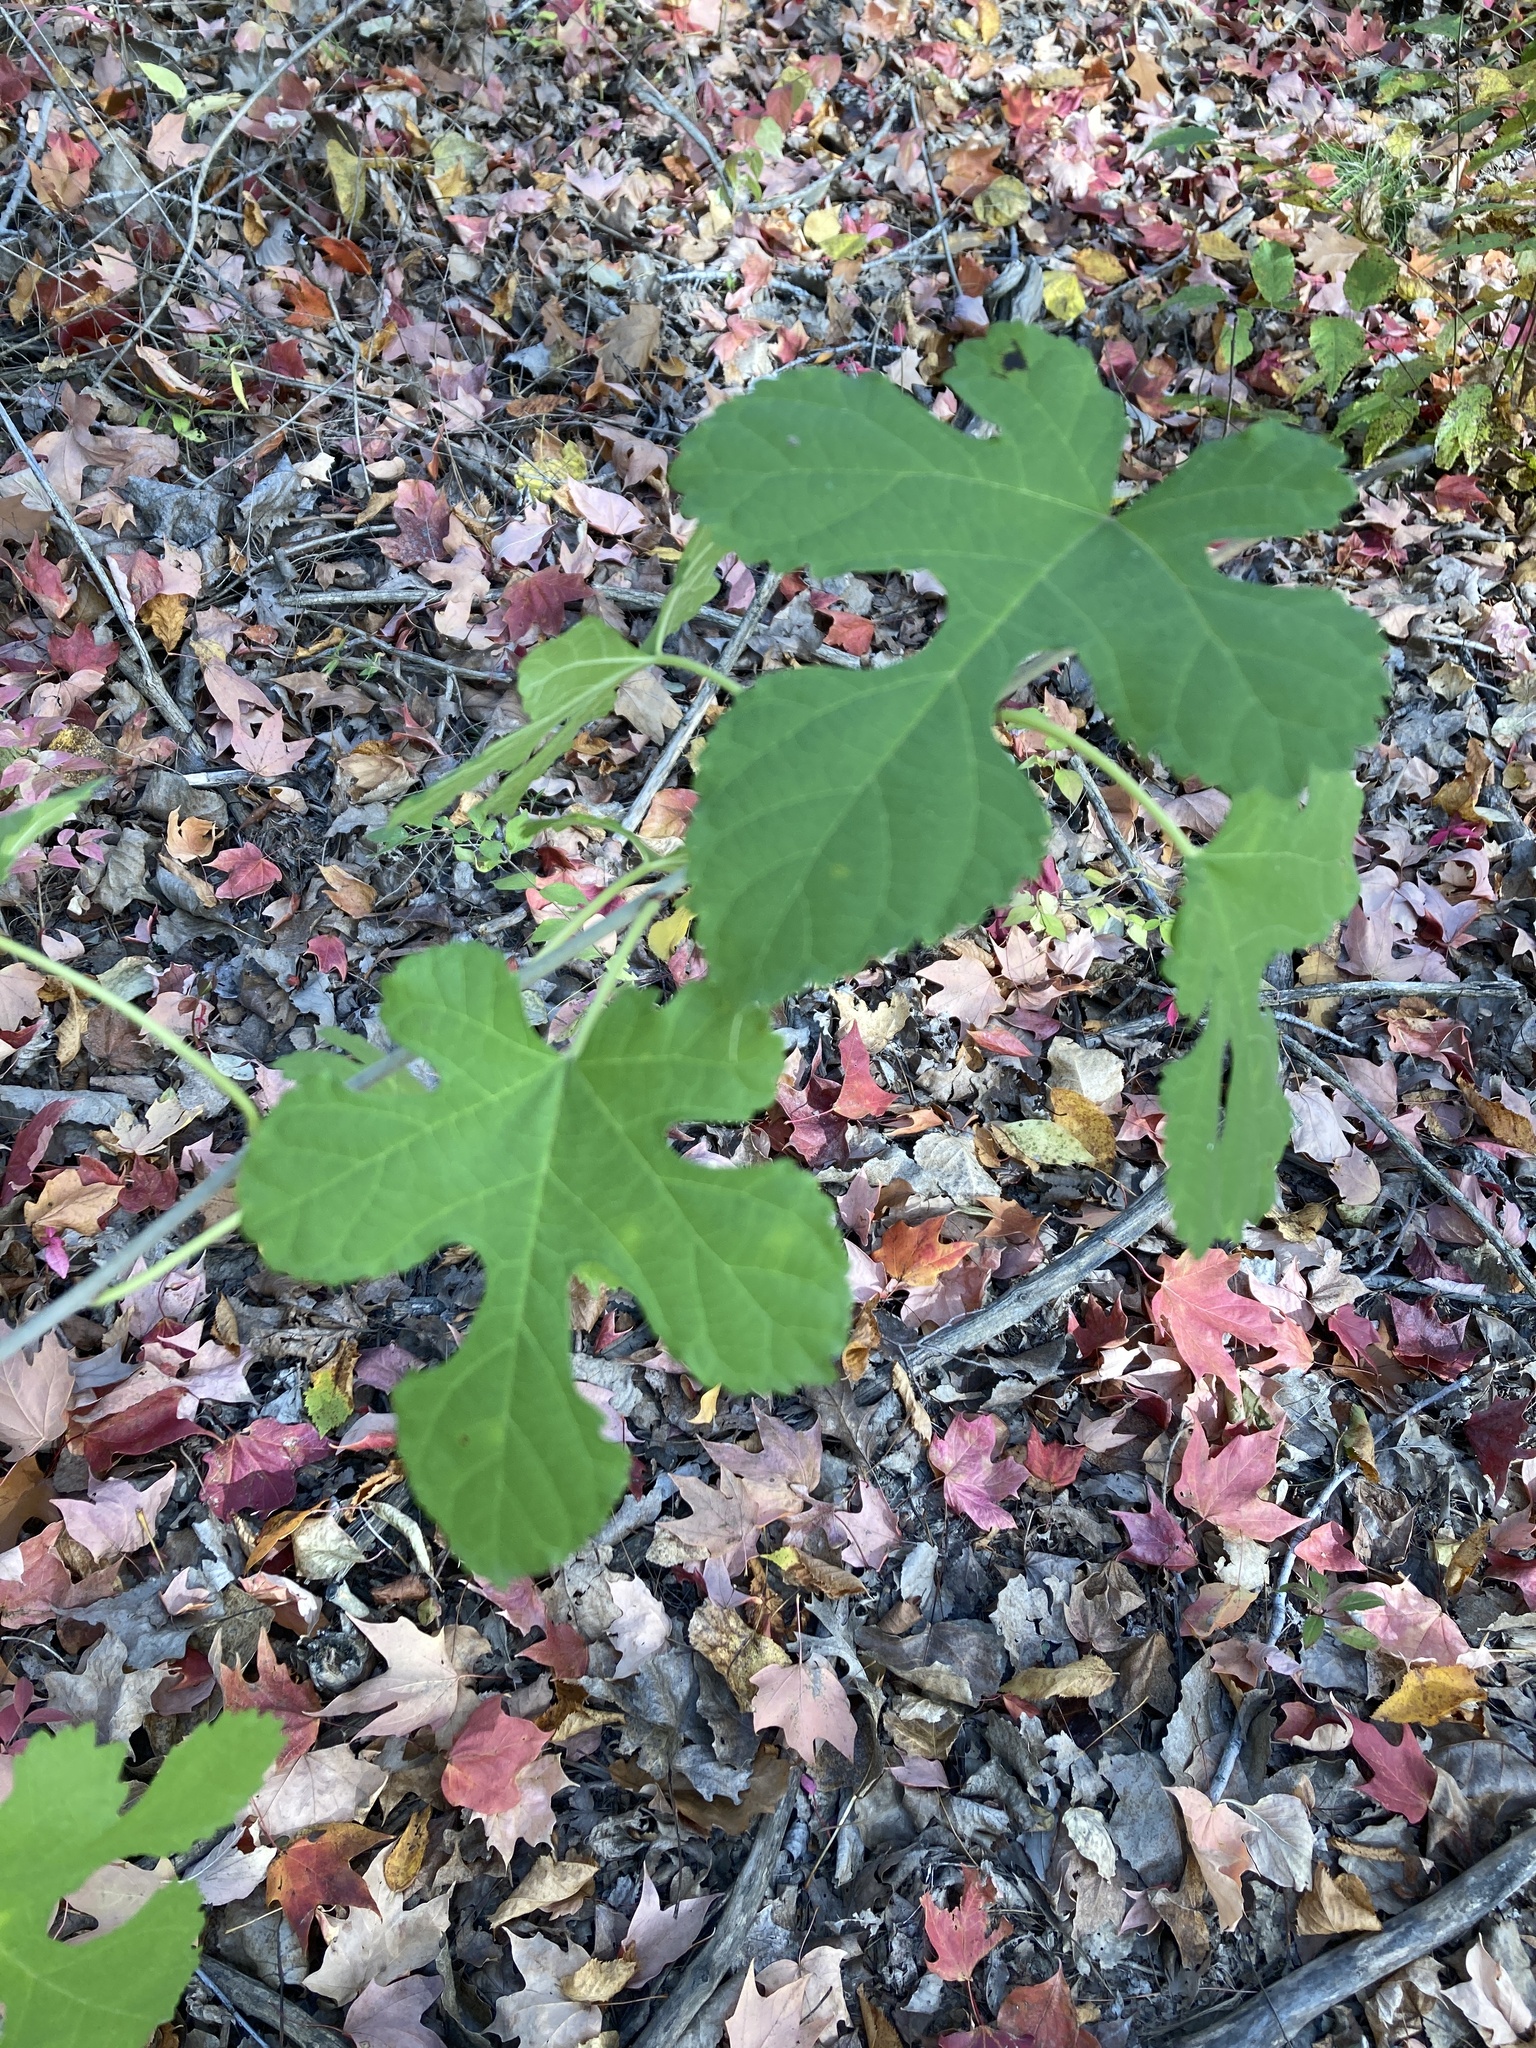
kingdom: Plantae
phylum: Tracheophyta
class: Magnoliopsida
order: Rosales
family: Moraceae
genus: Morus
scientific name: Morus rubra
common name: Red mulberry
